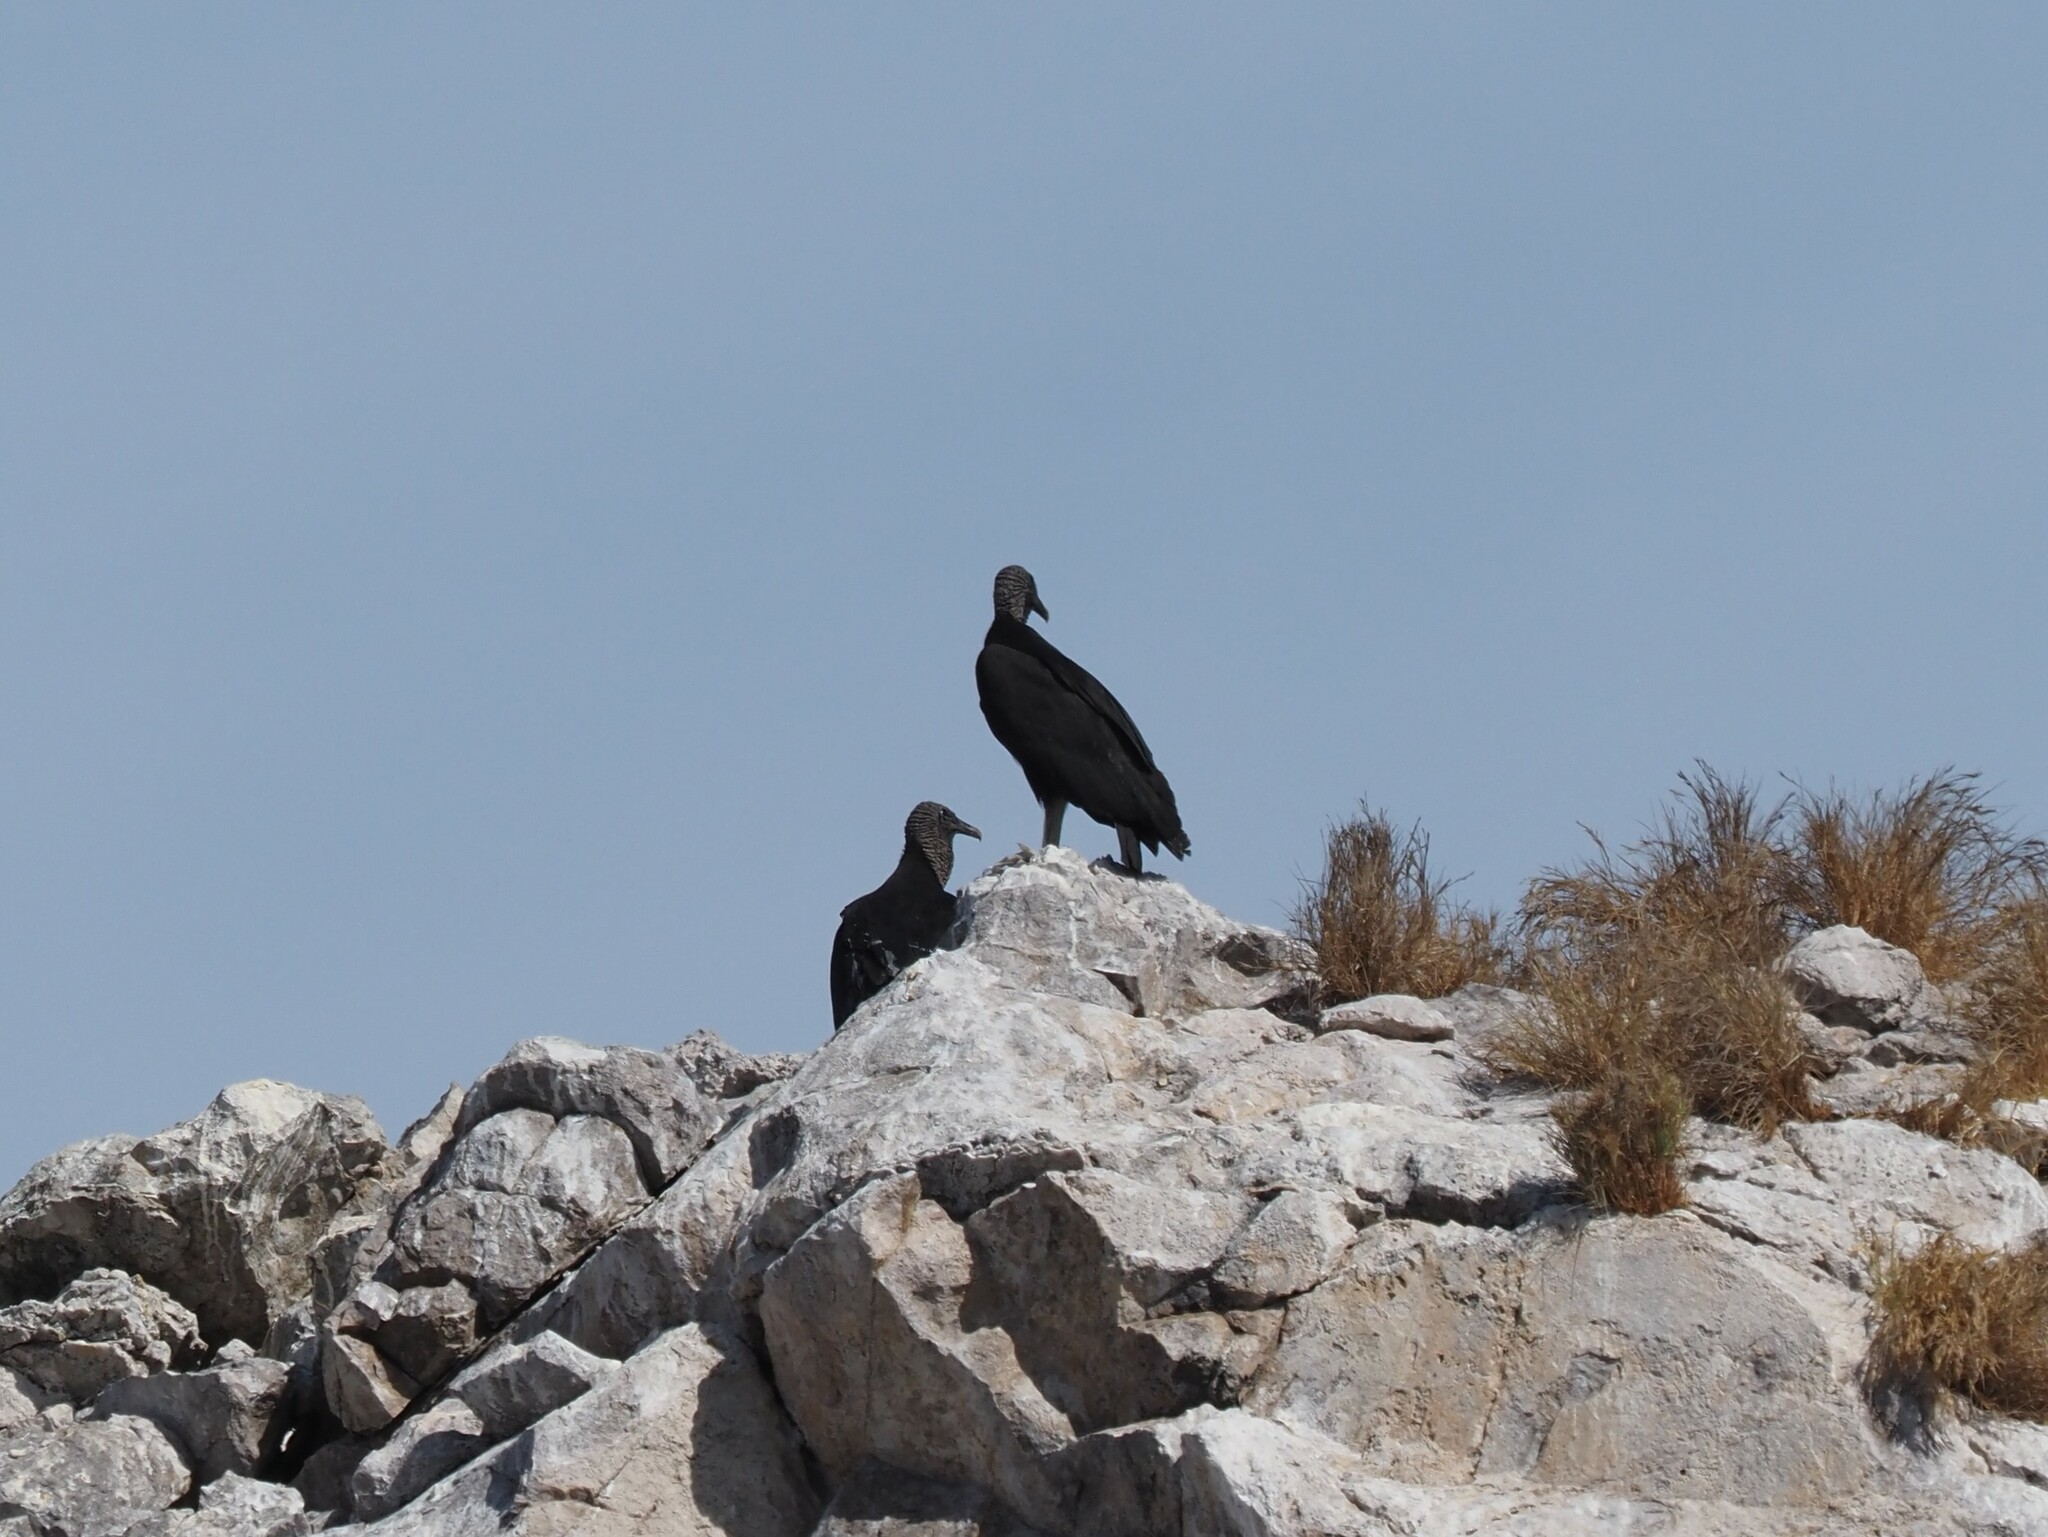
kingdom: Animalia
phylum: Chordata
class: Aves
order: Accipitriformes
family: Cathartidae
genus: Coragyps
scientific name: Coragyps atratus
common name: Black vulture
